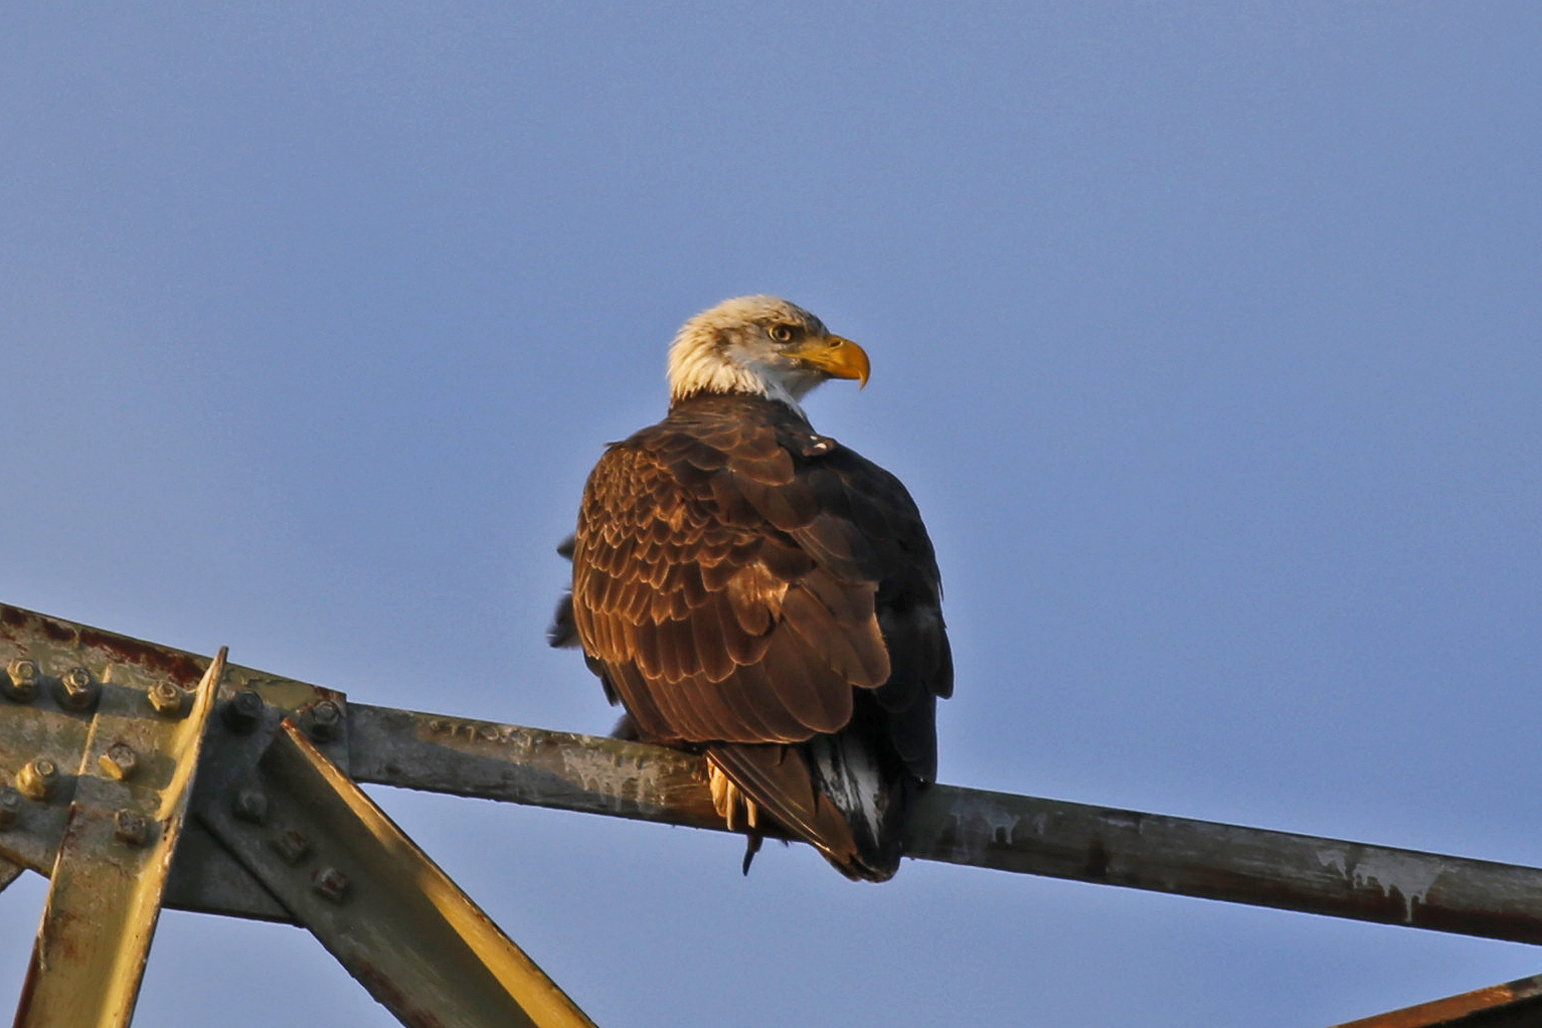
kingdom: Animalia
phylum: Chordata
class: Aves
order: Accipitriformes
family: Accipitridae
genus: Haliaeetus
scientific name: Haliaeetus leucocephalus
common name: Bald eagle
